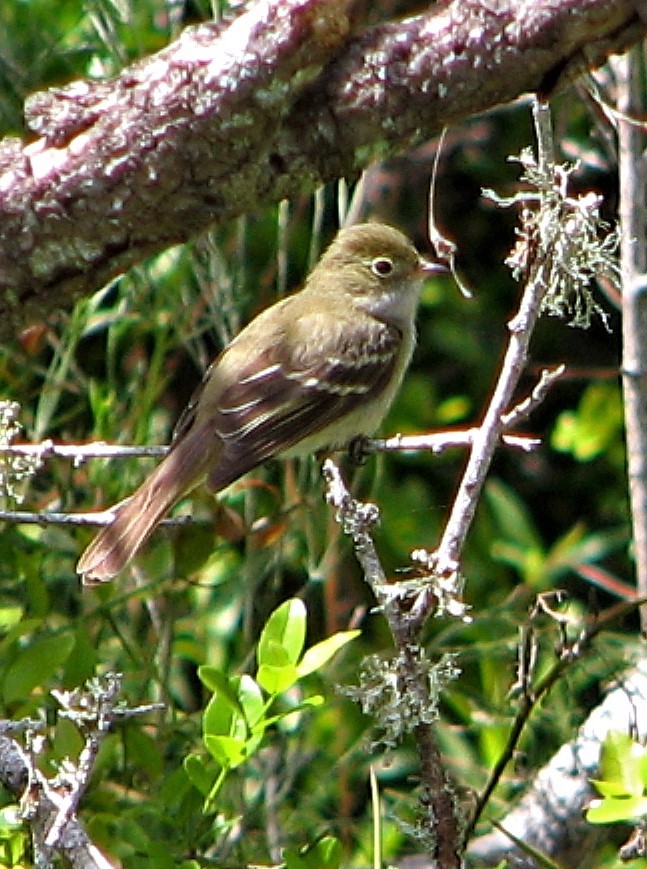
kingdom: Animalia
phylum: Chordata
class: Aves
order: Passeriformes
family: Tyrannidae
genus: Elaenia
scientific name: Elaenia parvirostris
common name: Small-billed elaenia
